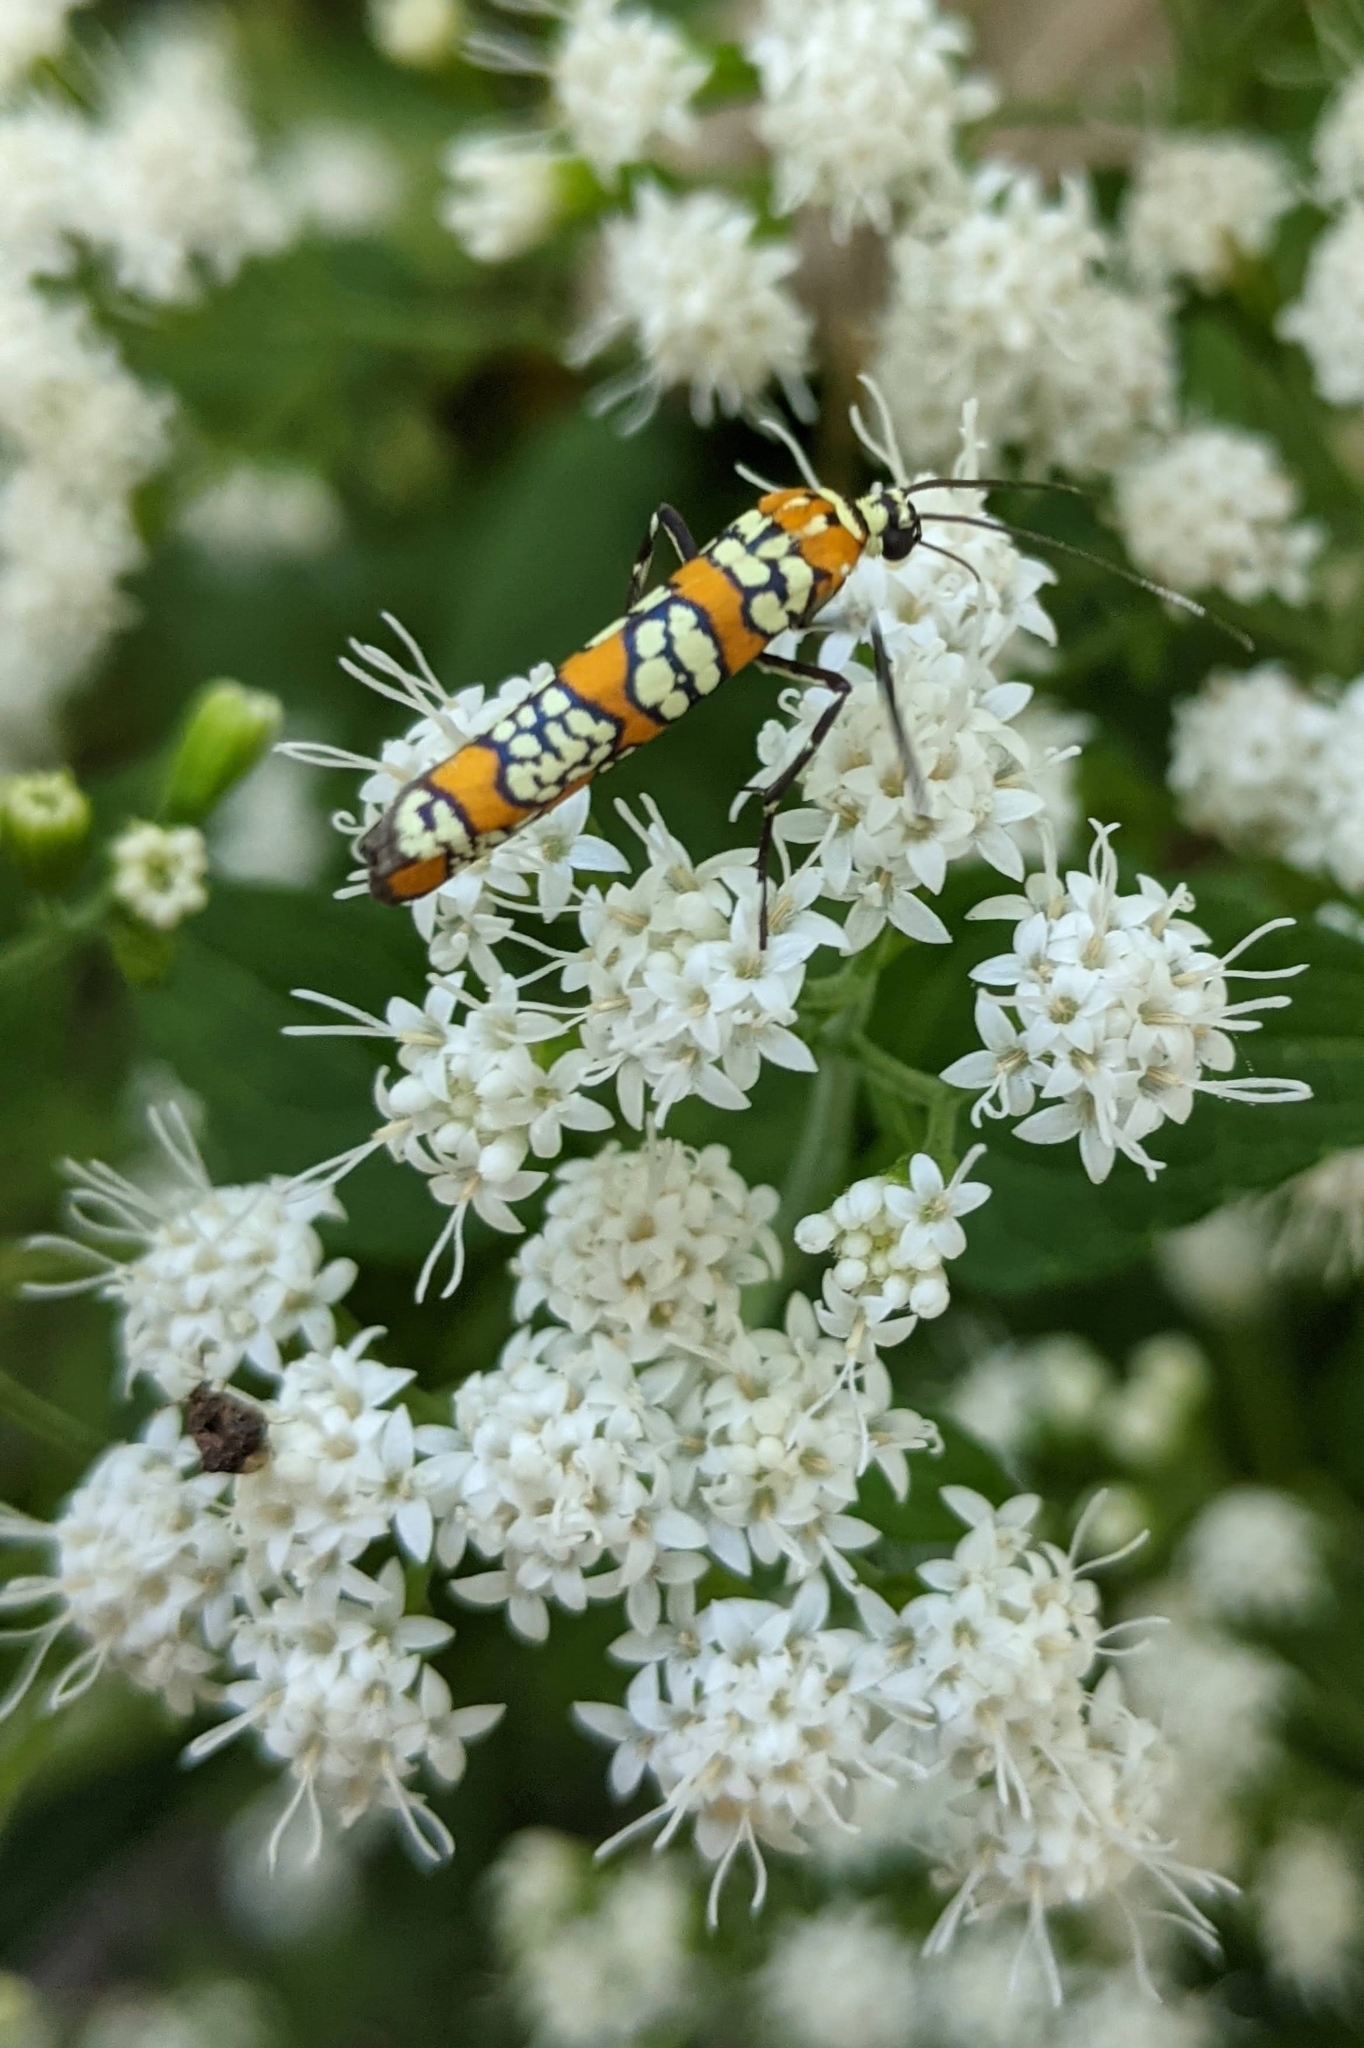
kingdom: Animalia
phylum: Arthropoda
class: Insecta
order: Lepidoptera
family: Attevidae
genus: Atteva
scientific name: Atteva punctella
